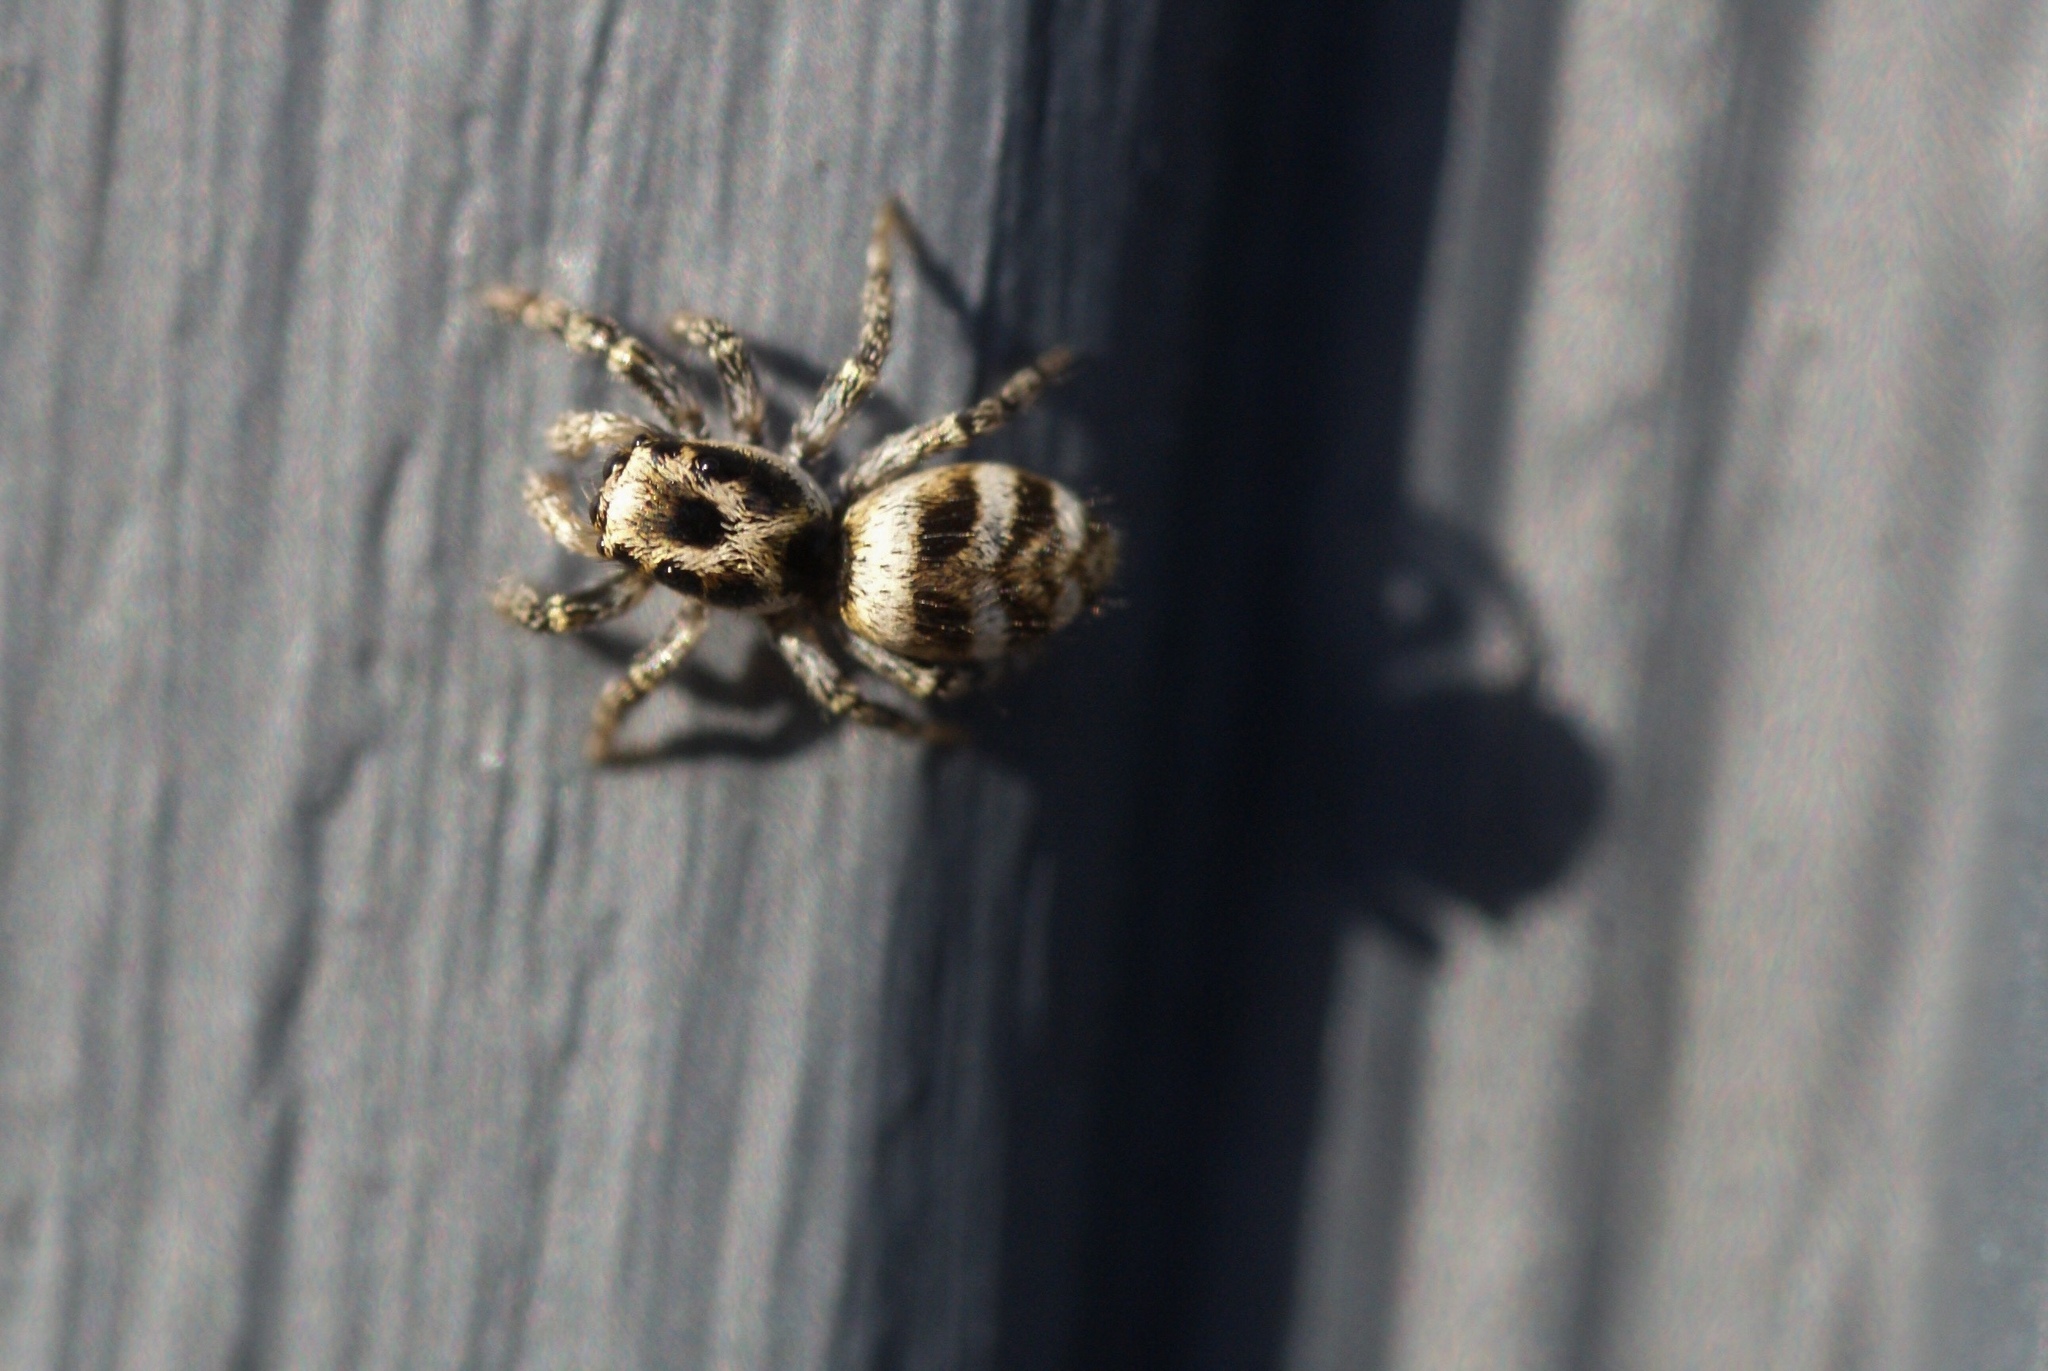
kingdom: Animalia
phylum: Arthropoda
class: Arachnida
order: Araneae
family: Salticidae
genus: Salticus
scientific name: Salticus scenicus
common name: Zebra jumper
